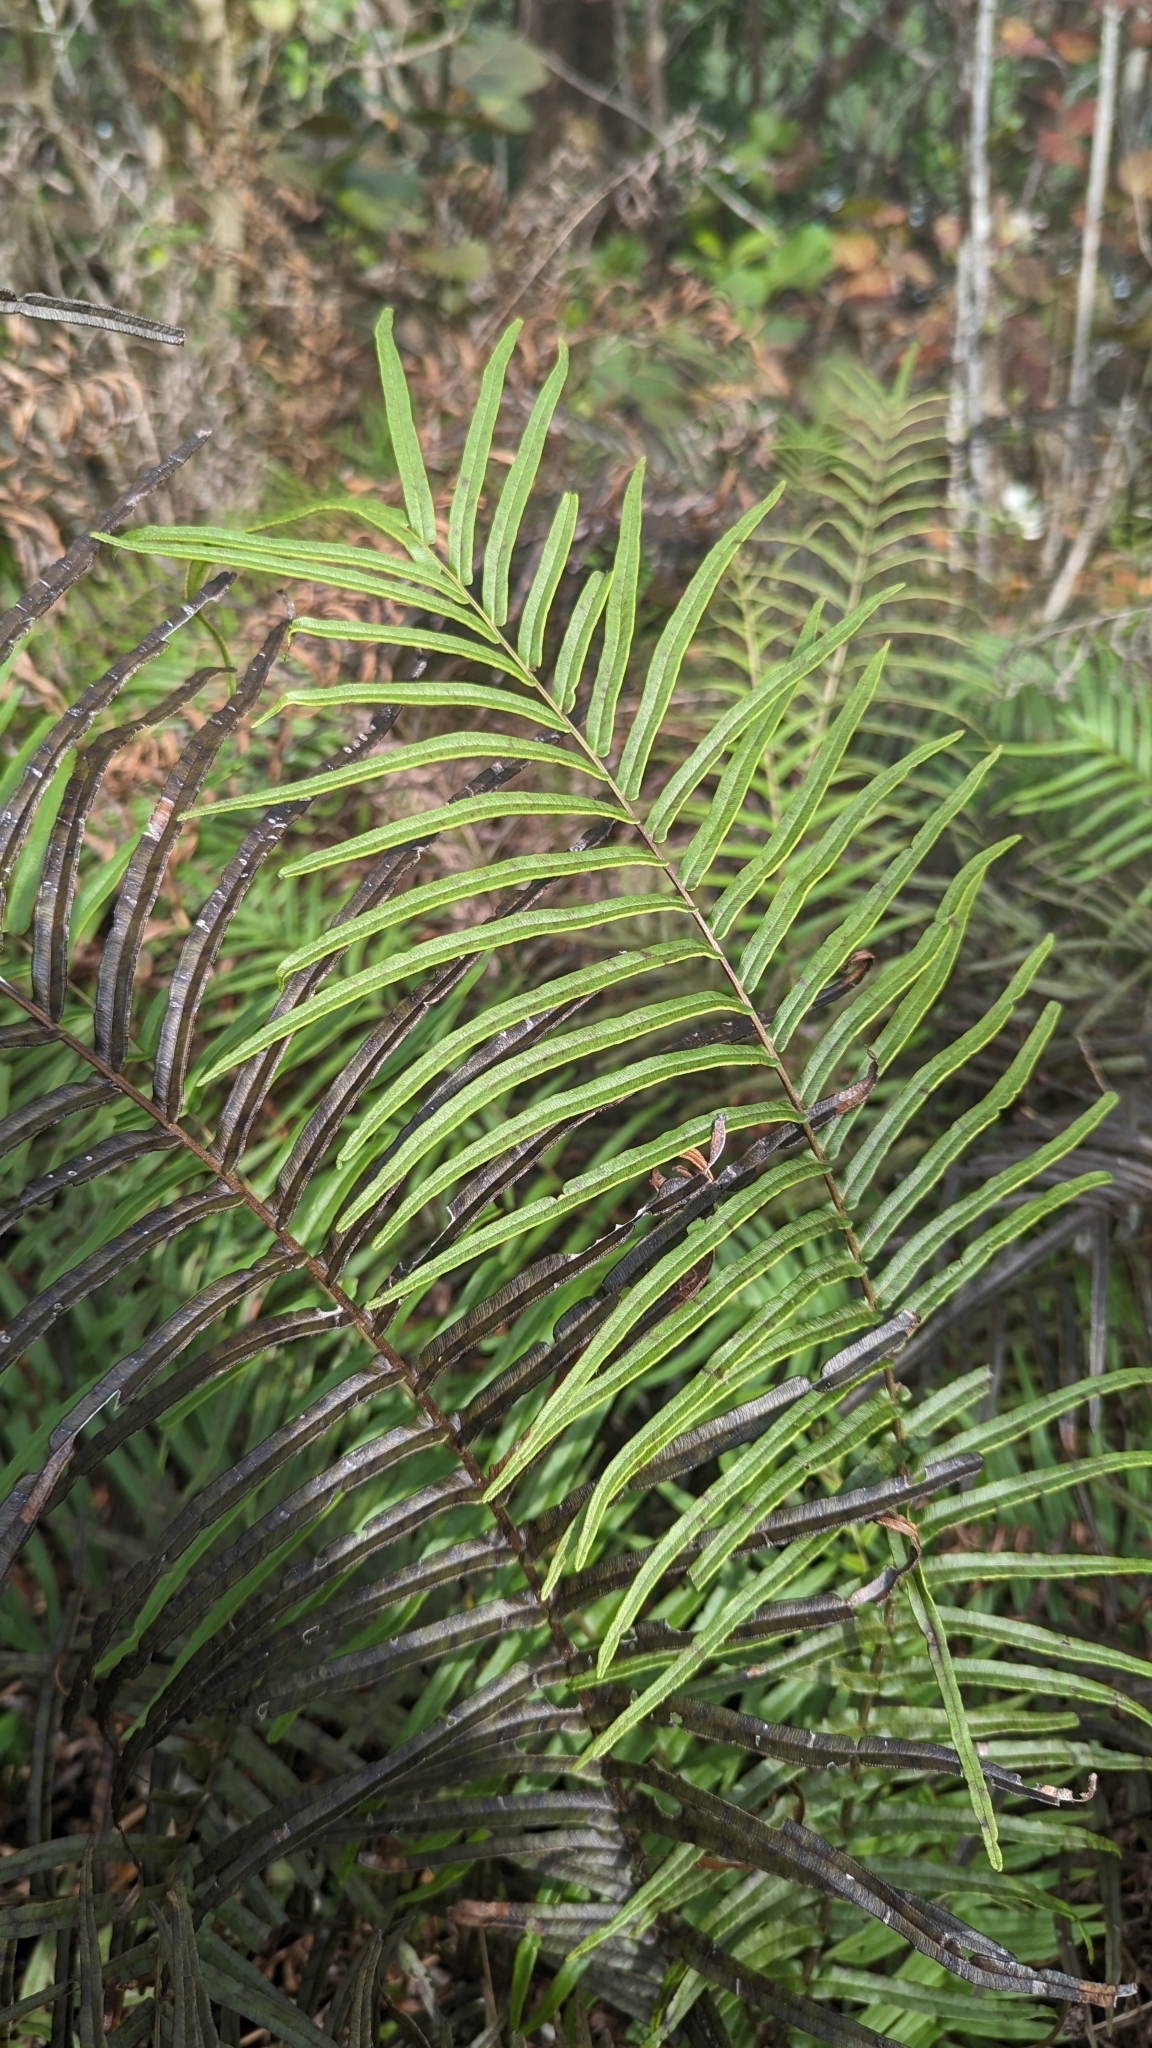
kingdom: Plantae
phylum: Tracheophyta
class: Polypodiopsida
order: Polypodiales
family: Pteridaceae
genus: Pteris
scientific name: Pteris vittata
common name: Ladder brake
